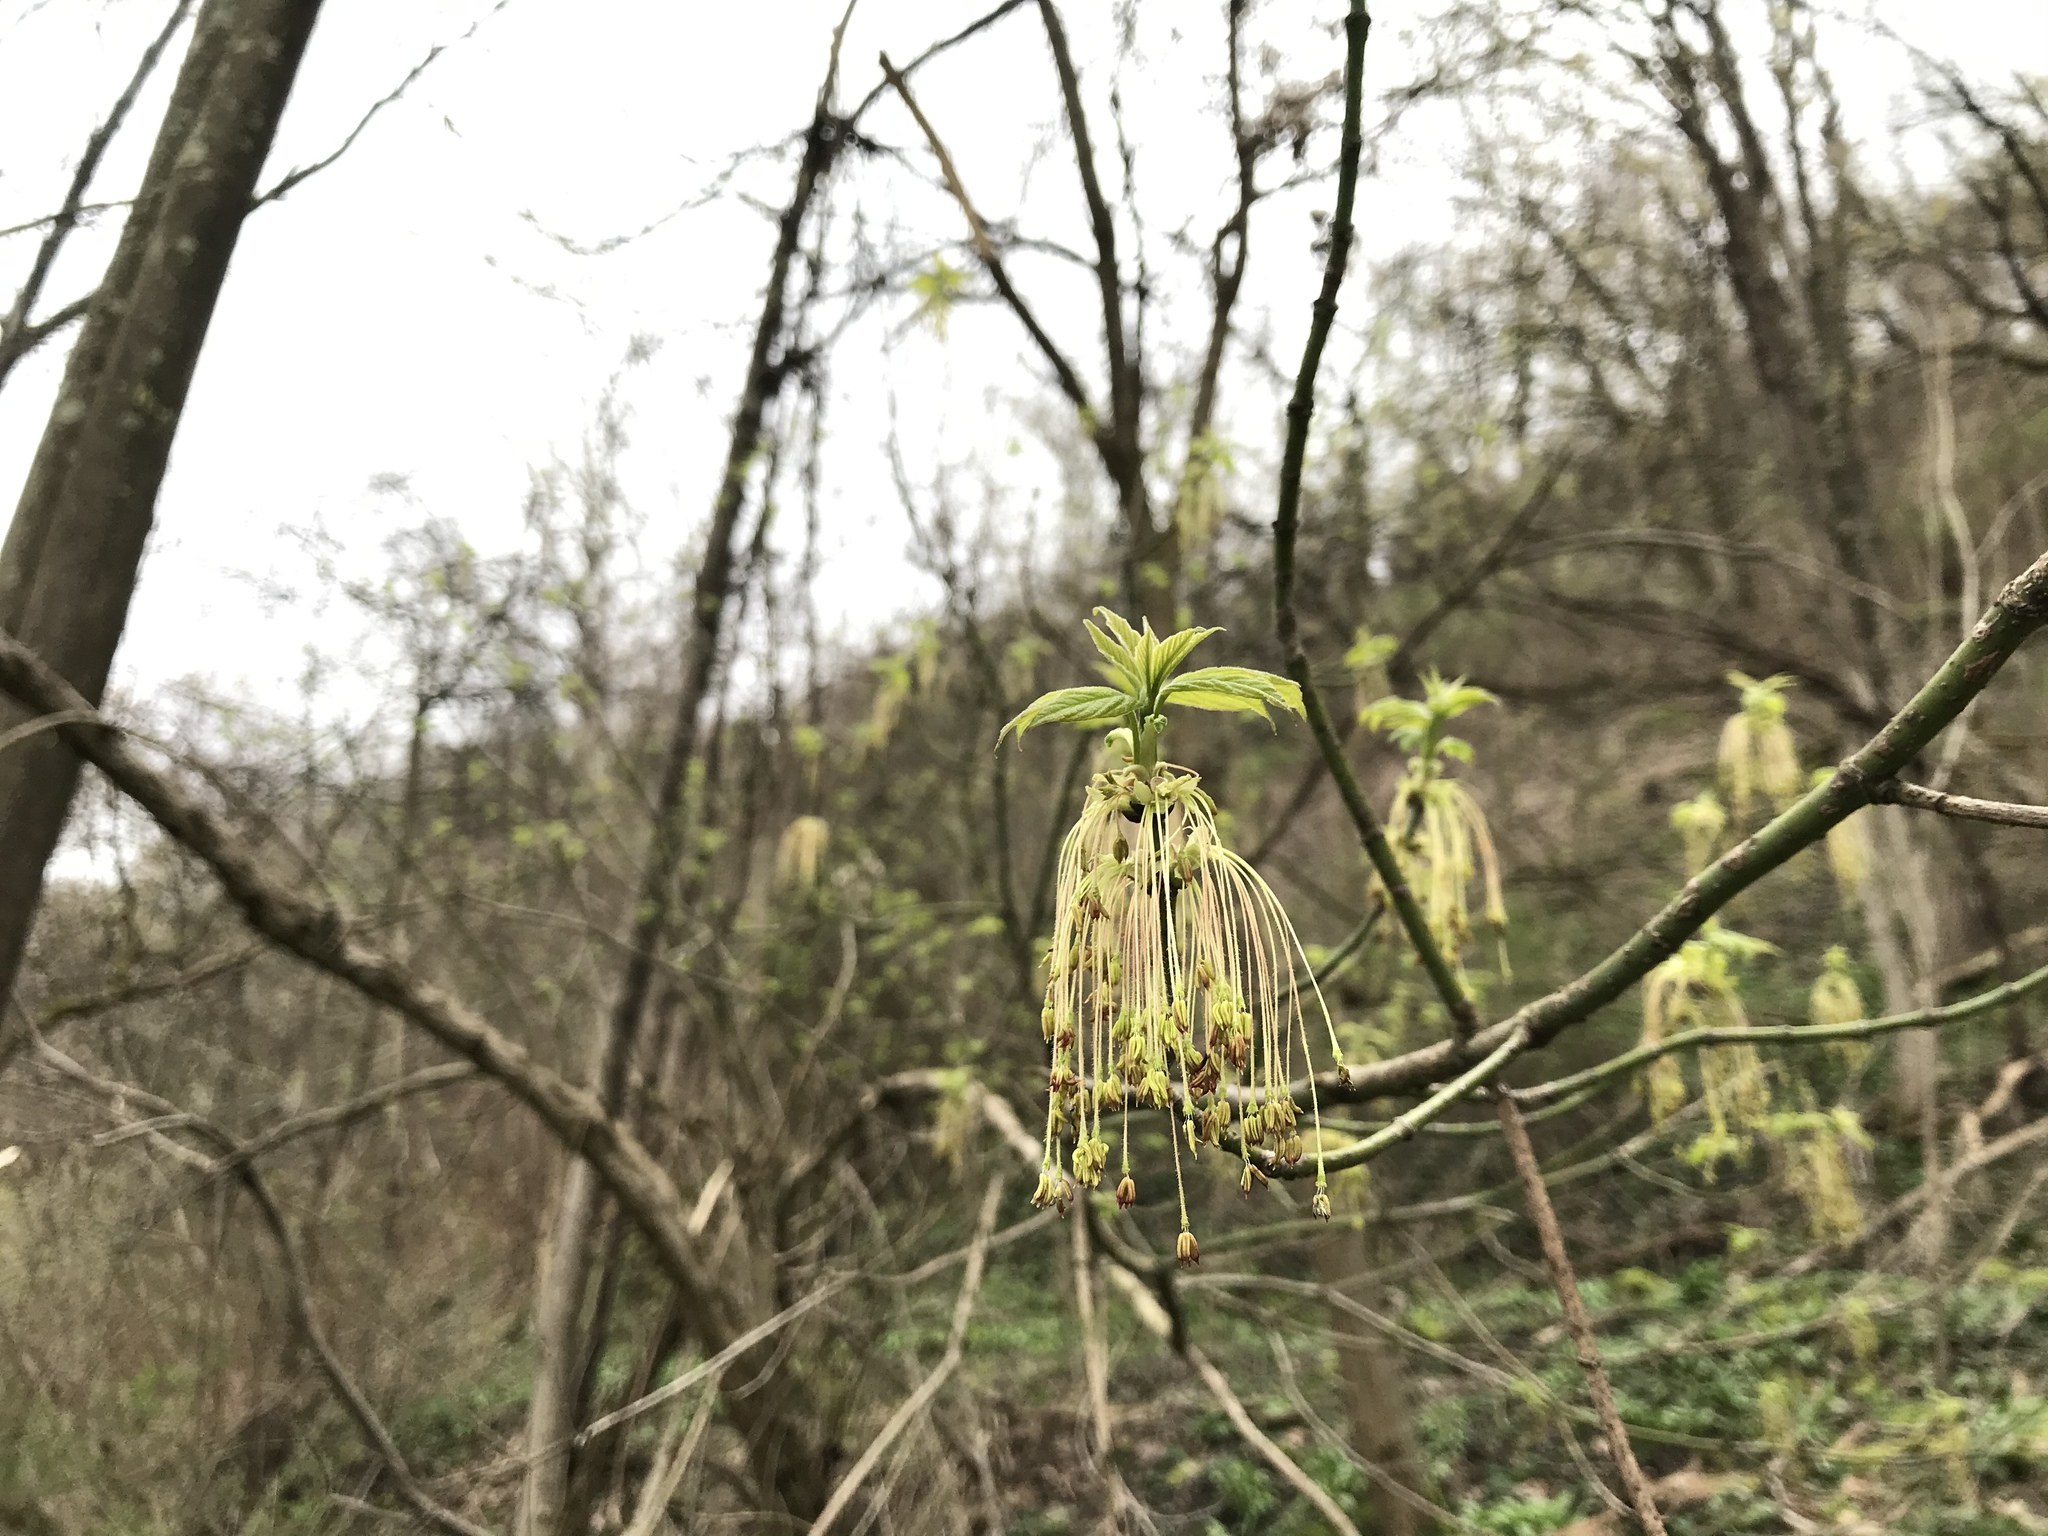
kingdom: Plantae
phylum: Tracheophyta
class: Magnoliopsida
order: Sapindales
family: Sapindaceae
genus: Acer
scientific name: Acer negundo
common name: Ashleaf maple
